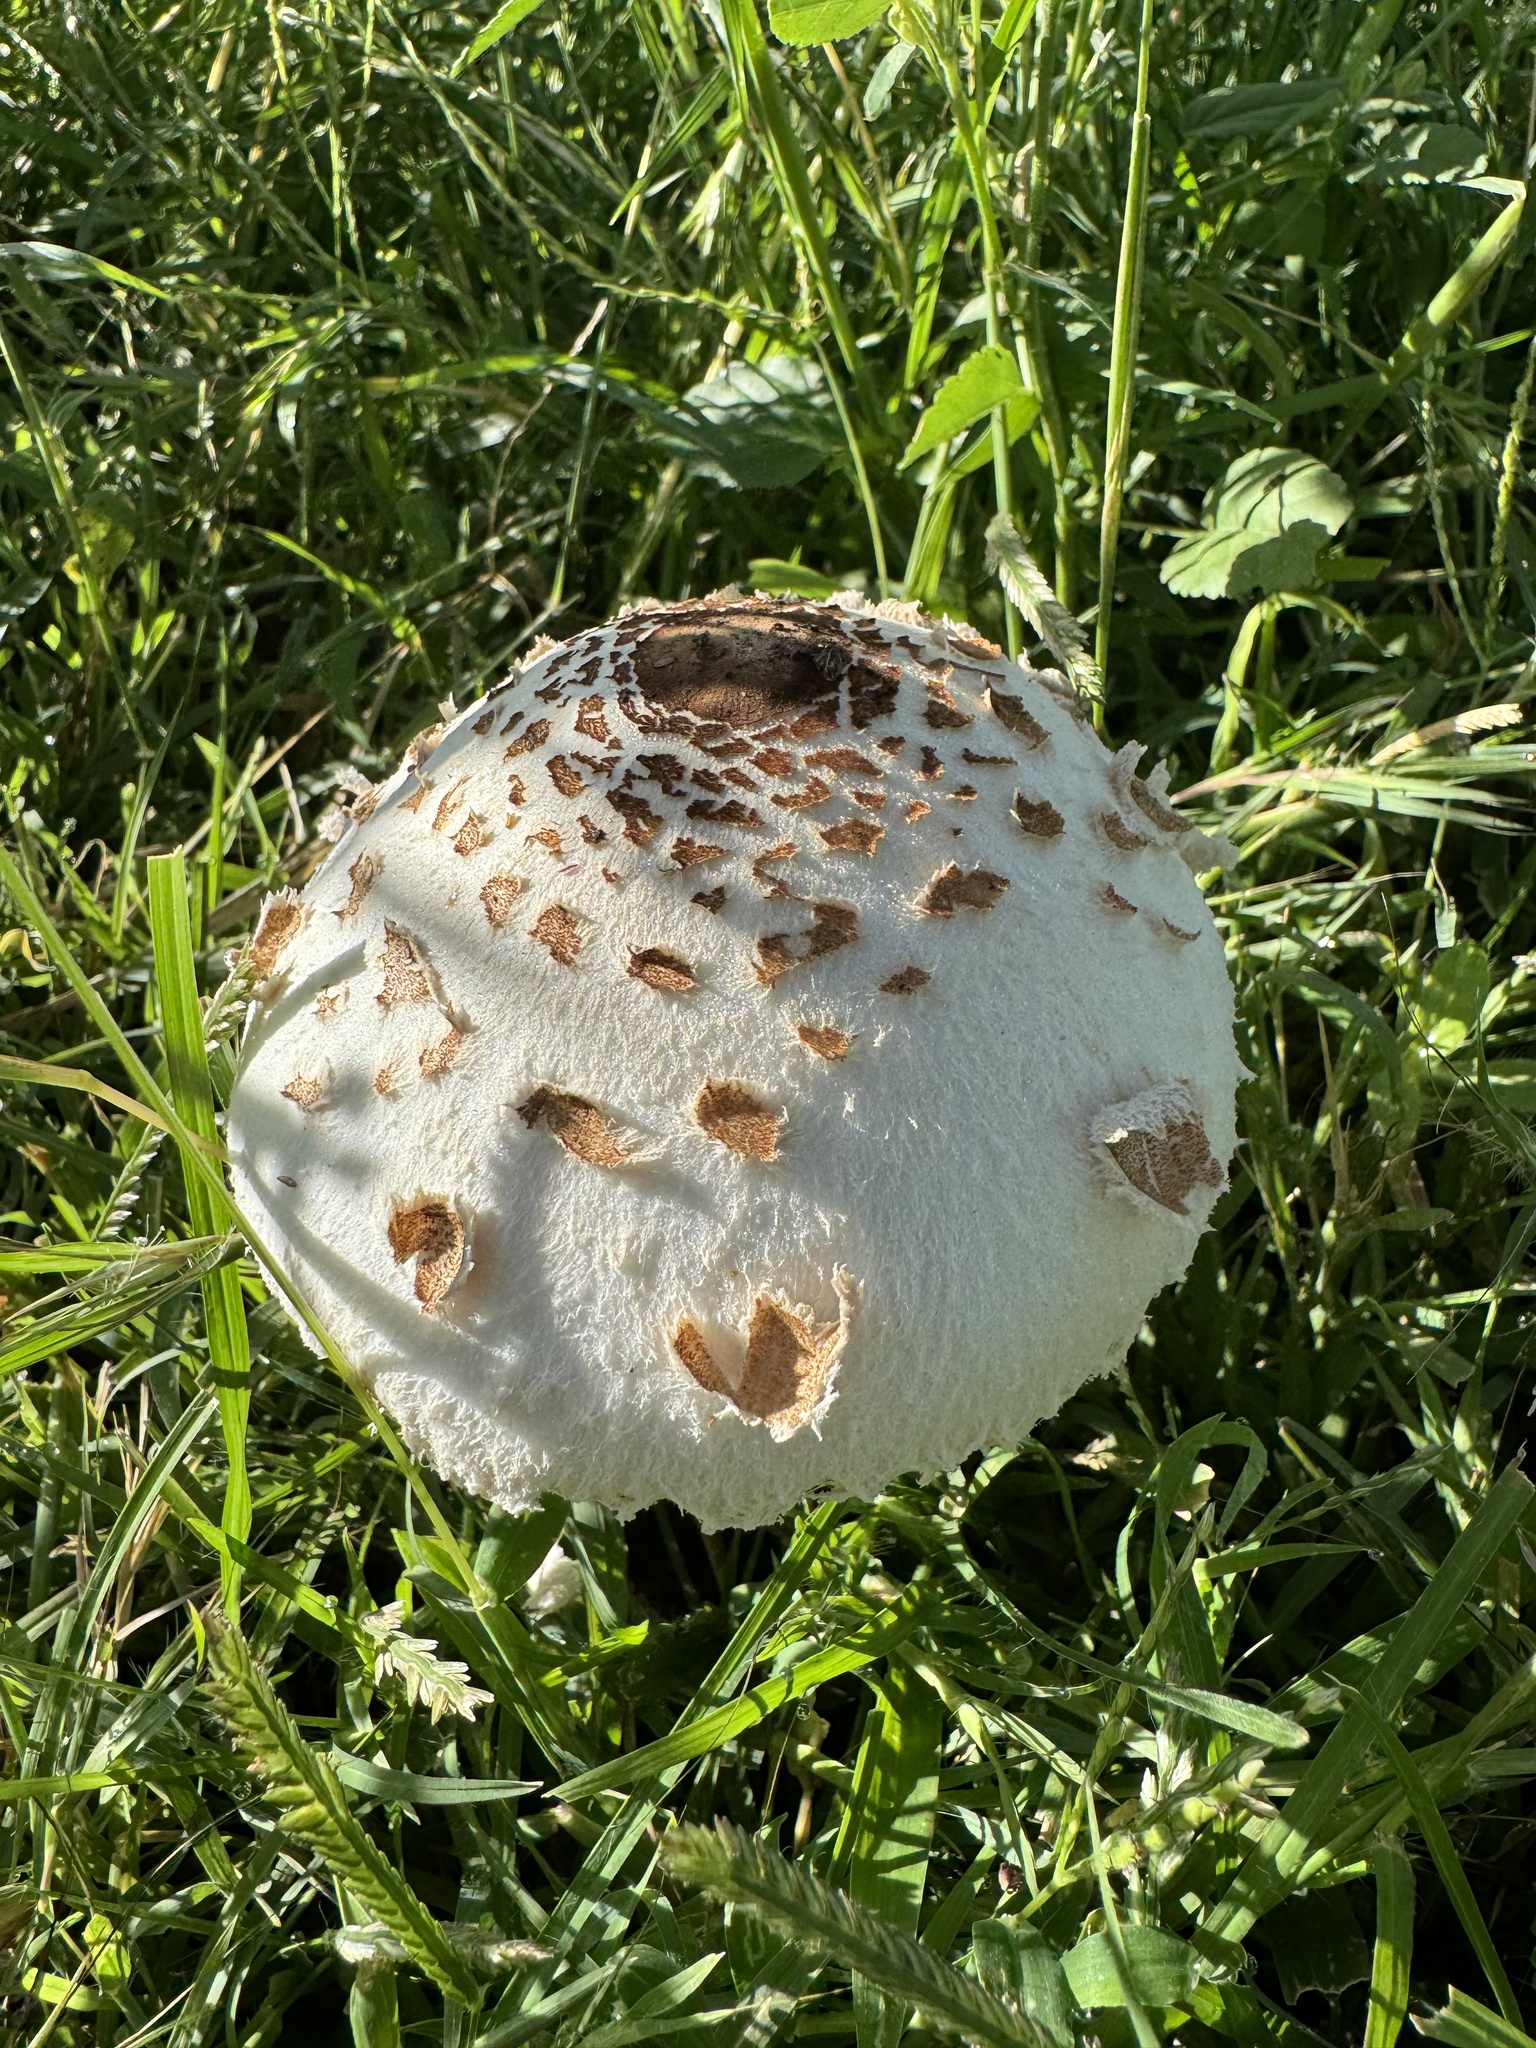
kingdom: Fungi
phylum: Basidiomycota
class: Agaricomycetes
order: Agaricales
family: Agaricaceae
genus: Chlorophyllum
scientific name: Chlorophyllum molybdites
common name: False parasol
